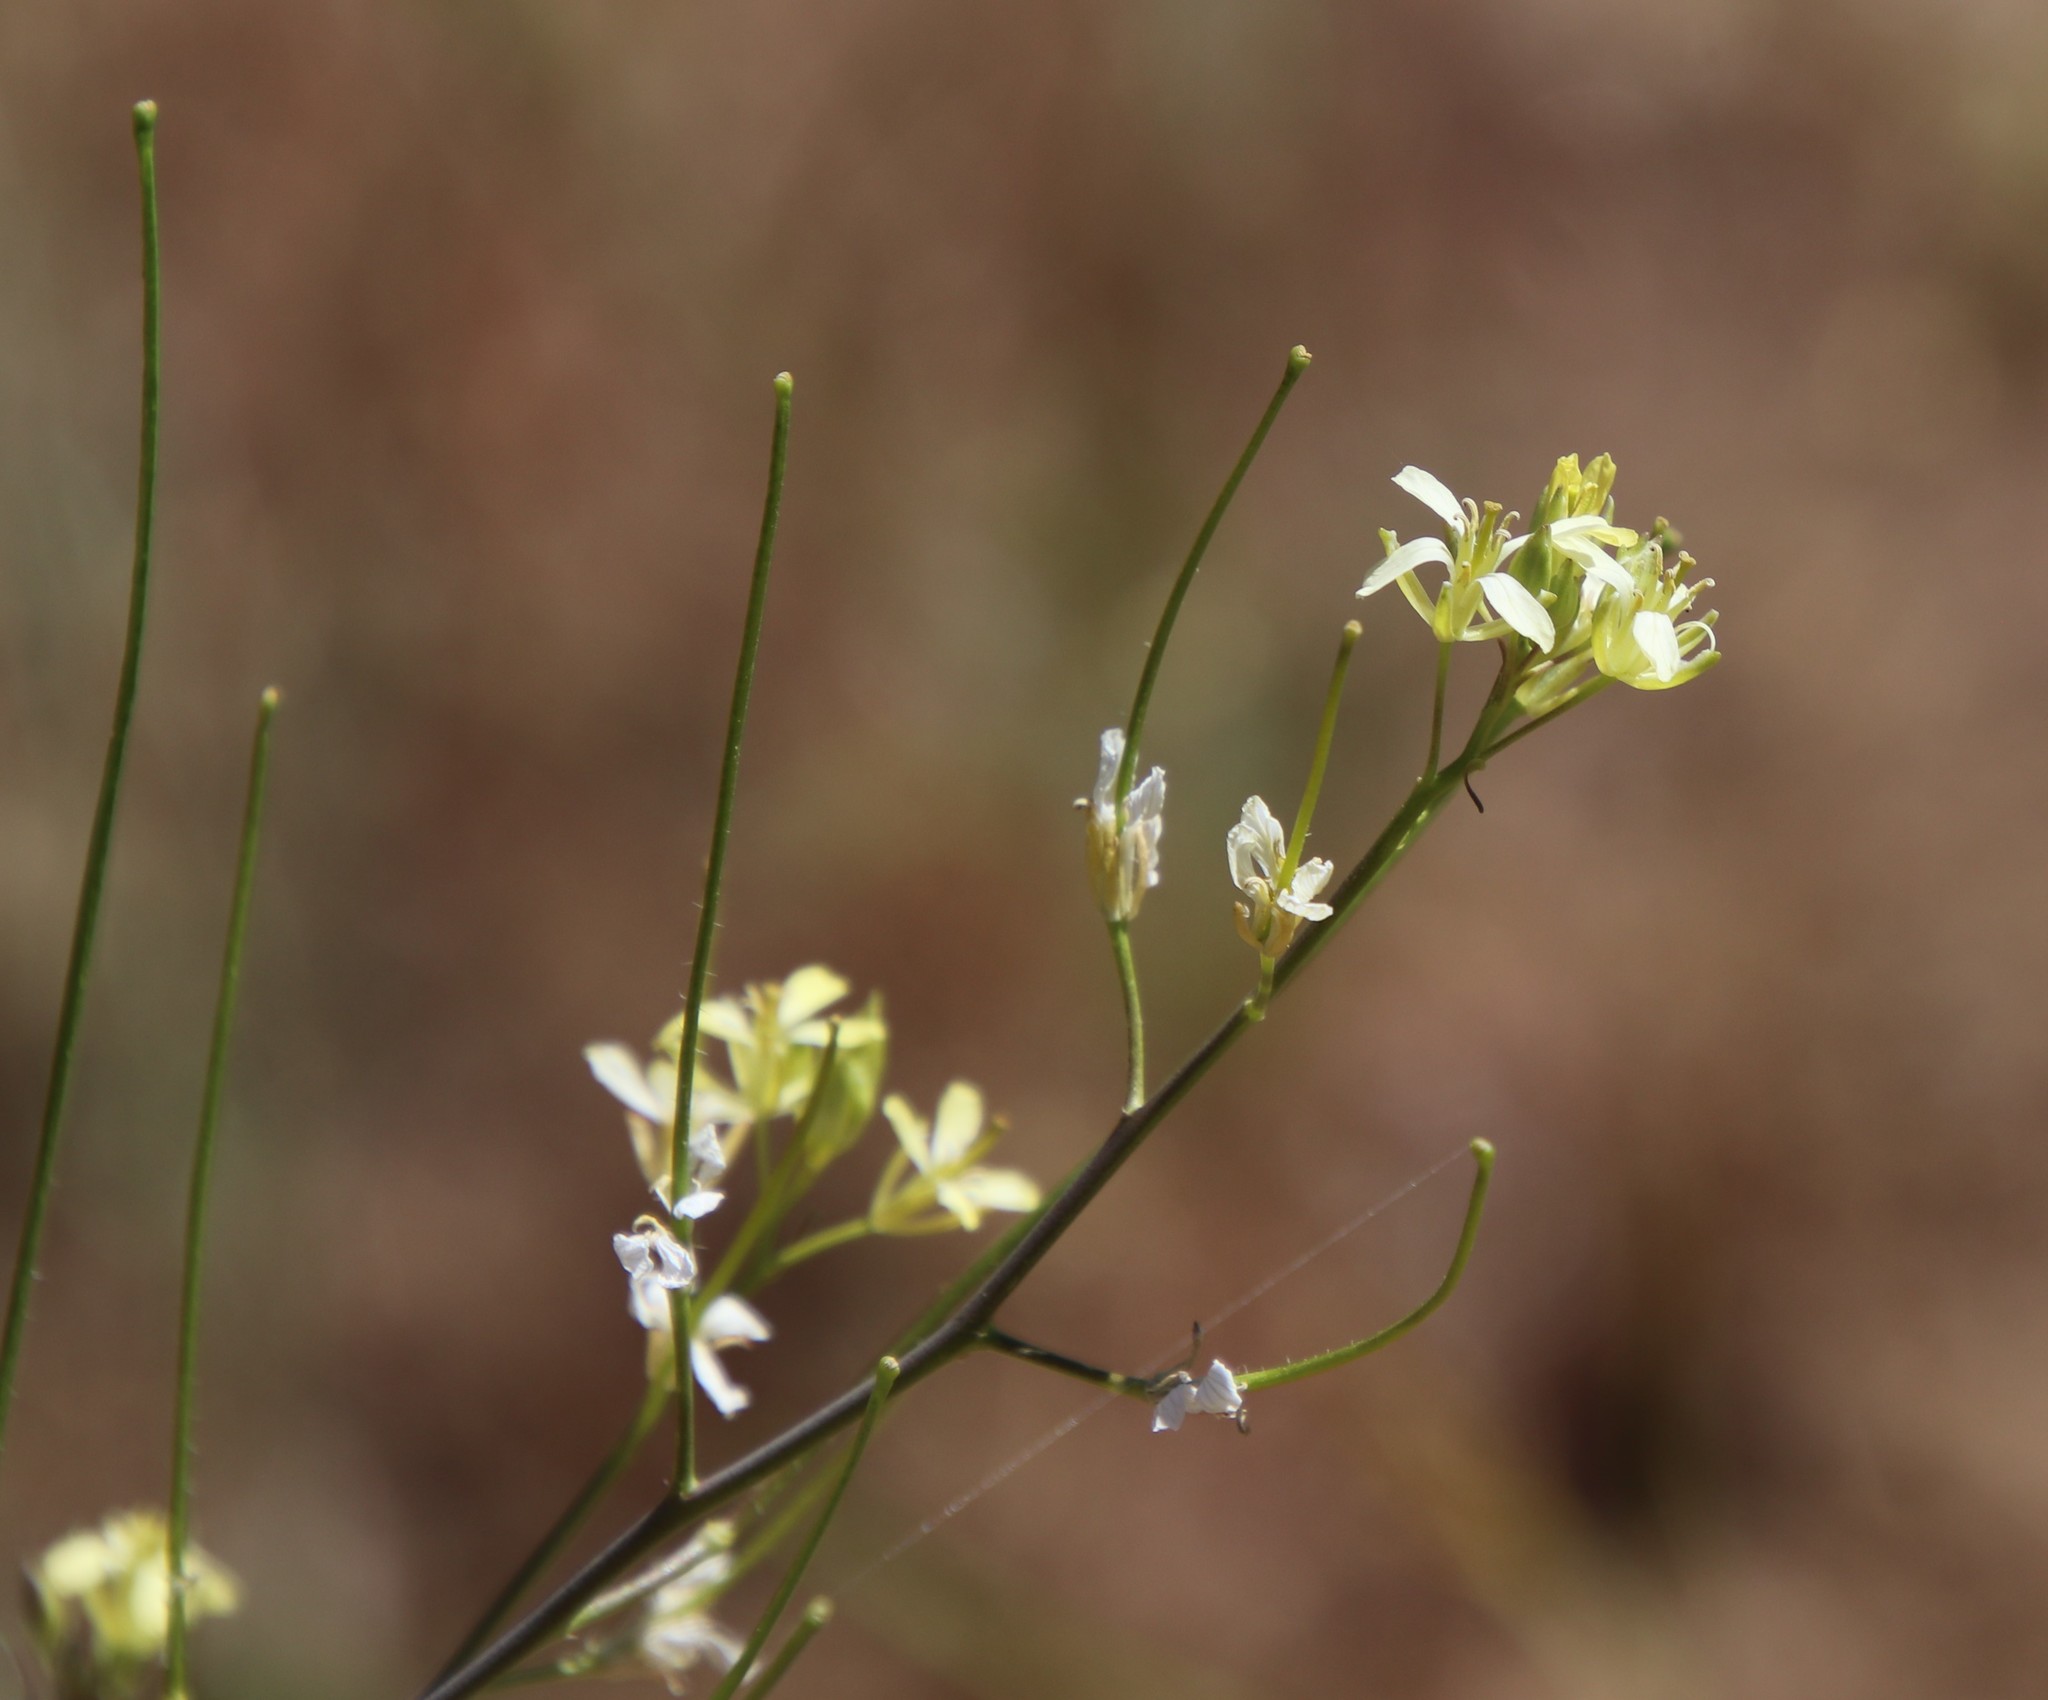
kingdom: Plantae
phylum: Tracheophyta
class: Magnoliopsida
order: Brassicales
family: Brassicaceae
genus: Sisymbrium
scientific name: Sisymbrium altissimum
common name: Tall rocket
